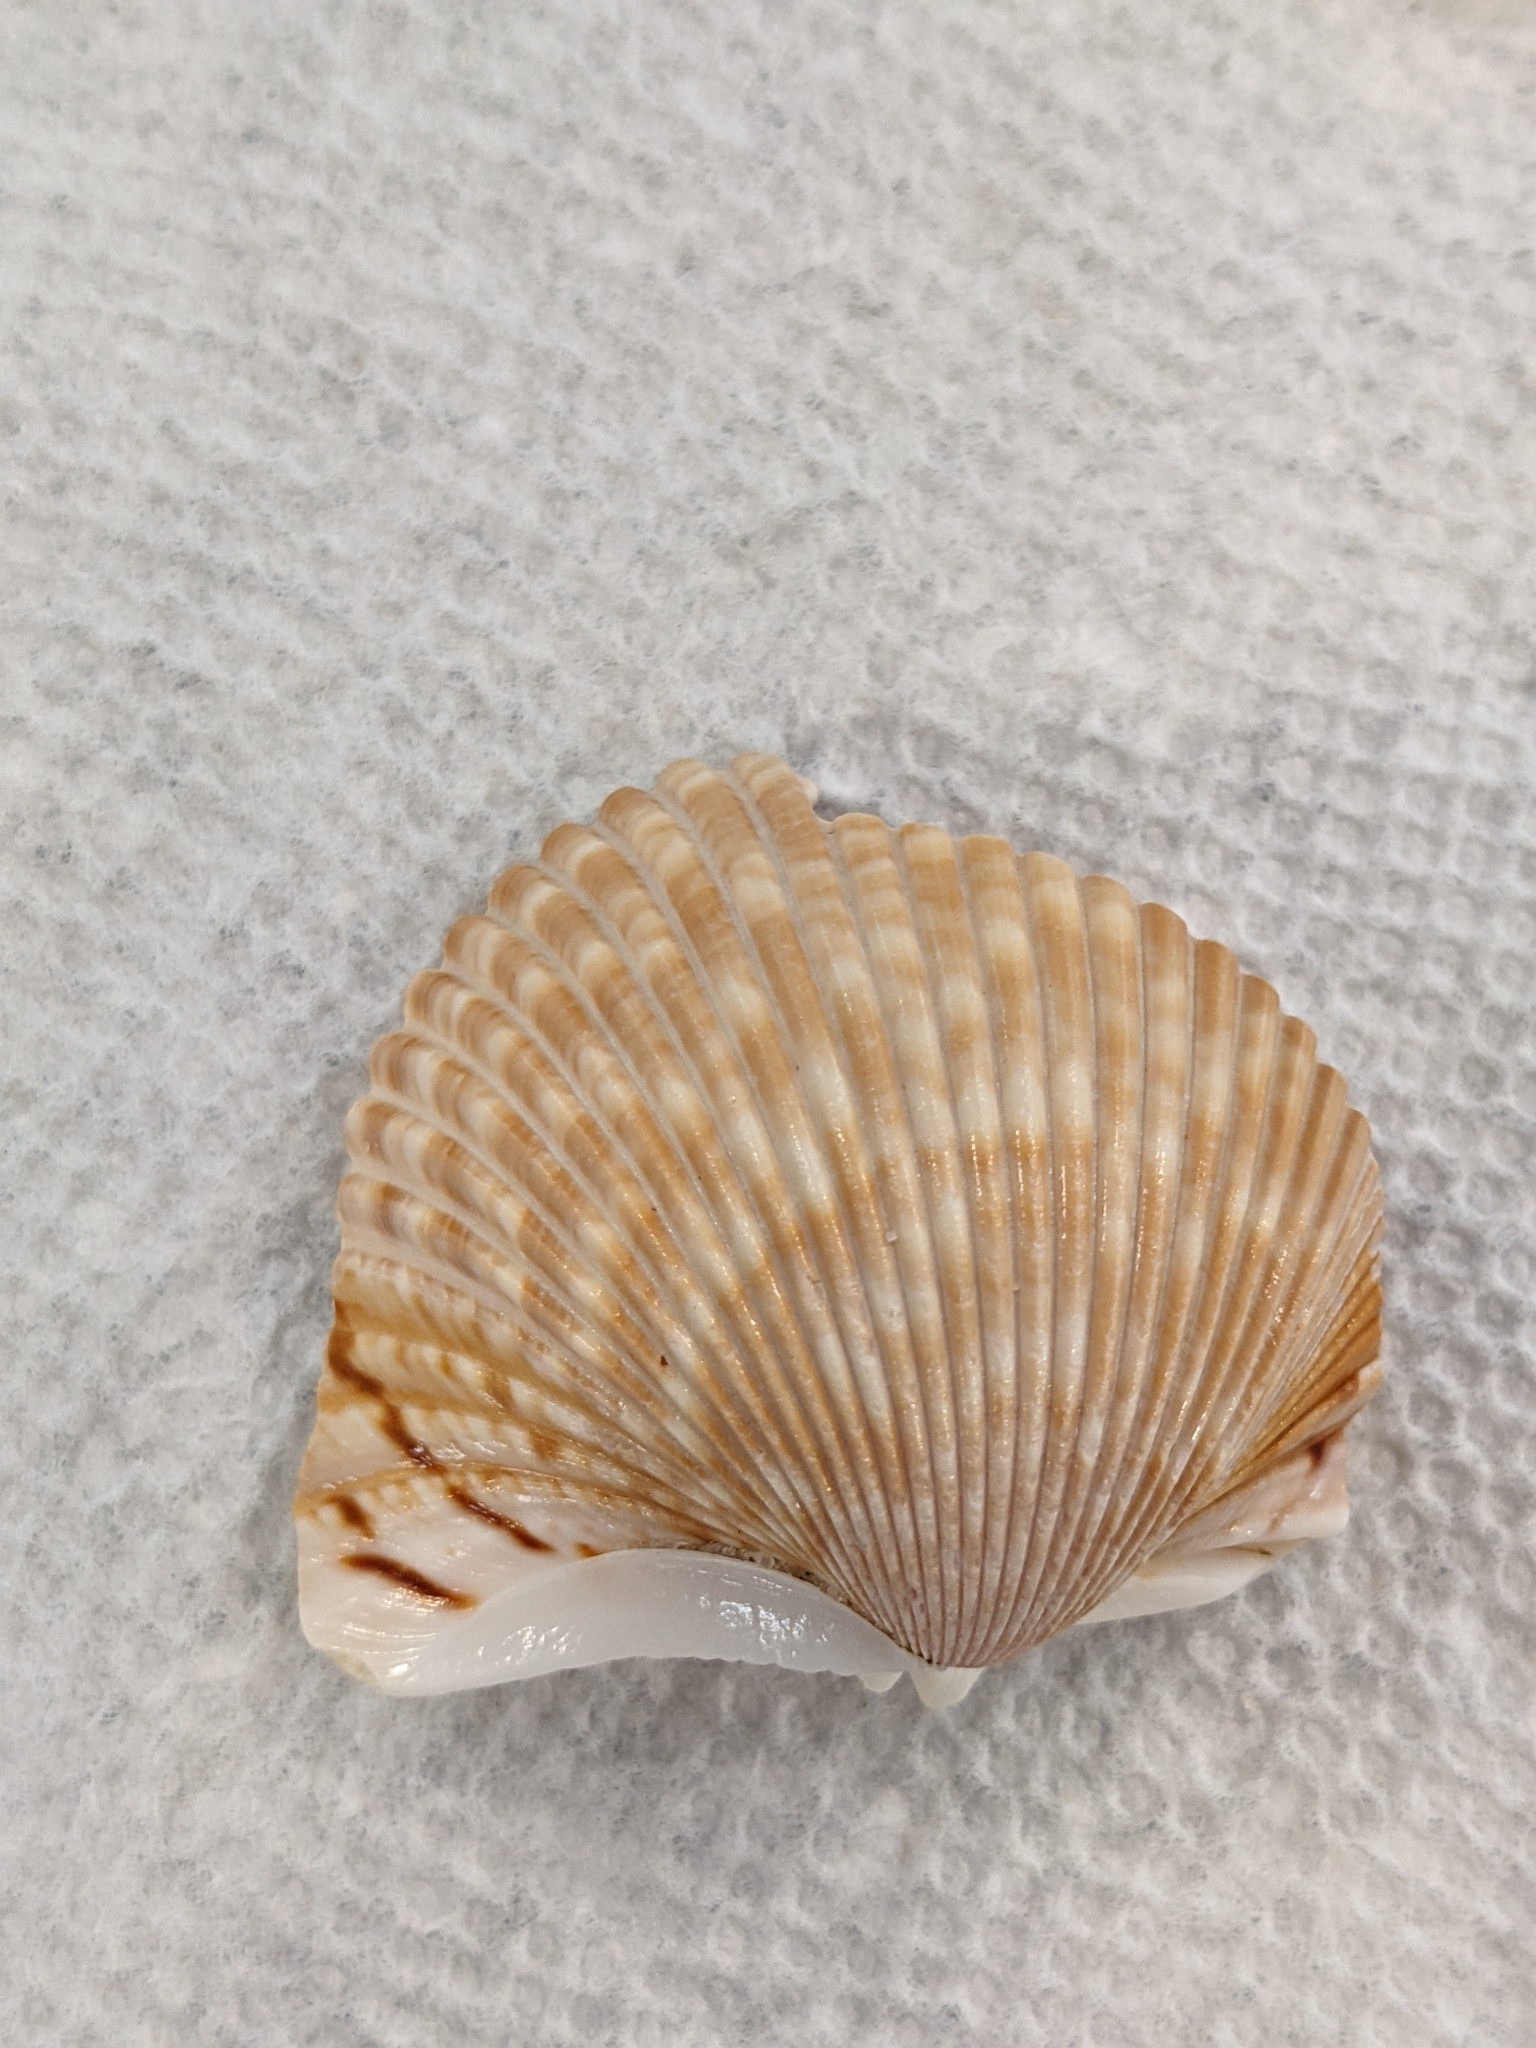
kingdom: Animalia
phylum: Mollusca
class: Bivalvia
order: Cardiida
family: Cardiidae
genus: Dinocardium
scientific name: Dinocardium robustum
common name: Atlantic giant cockle
